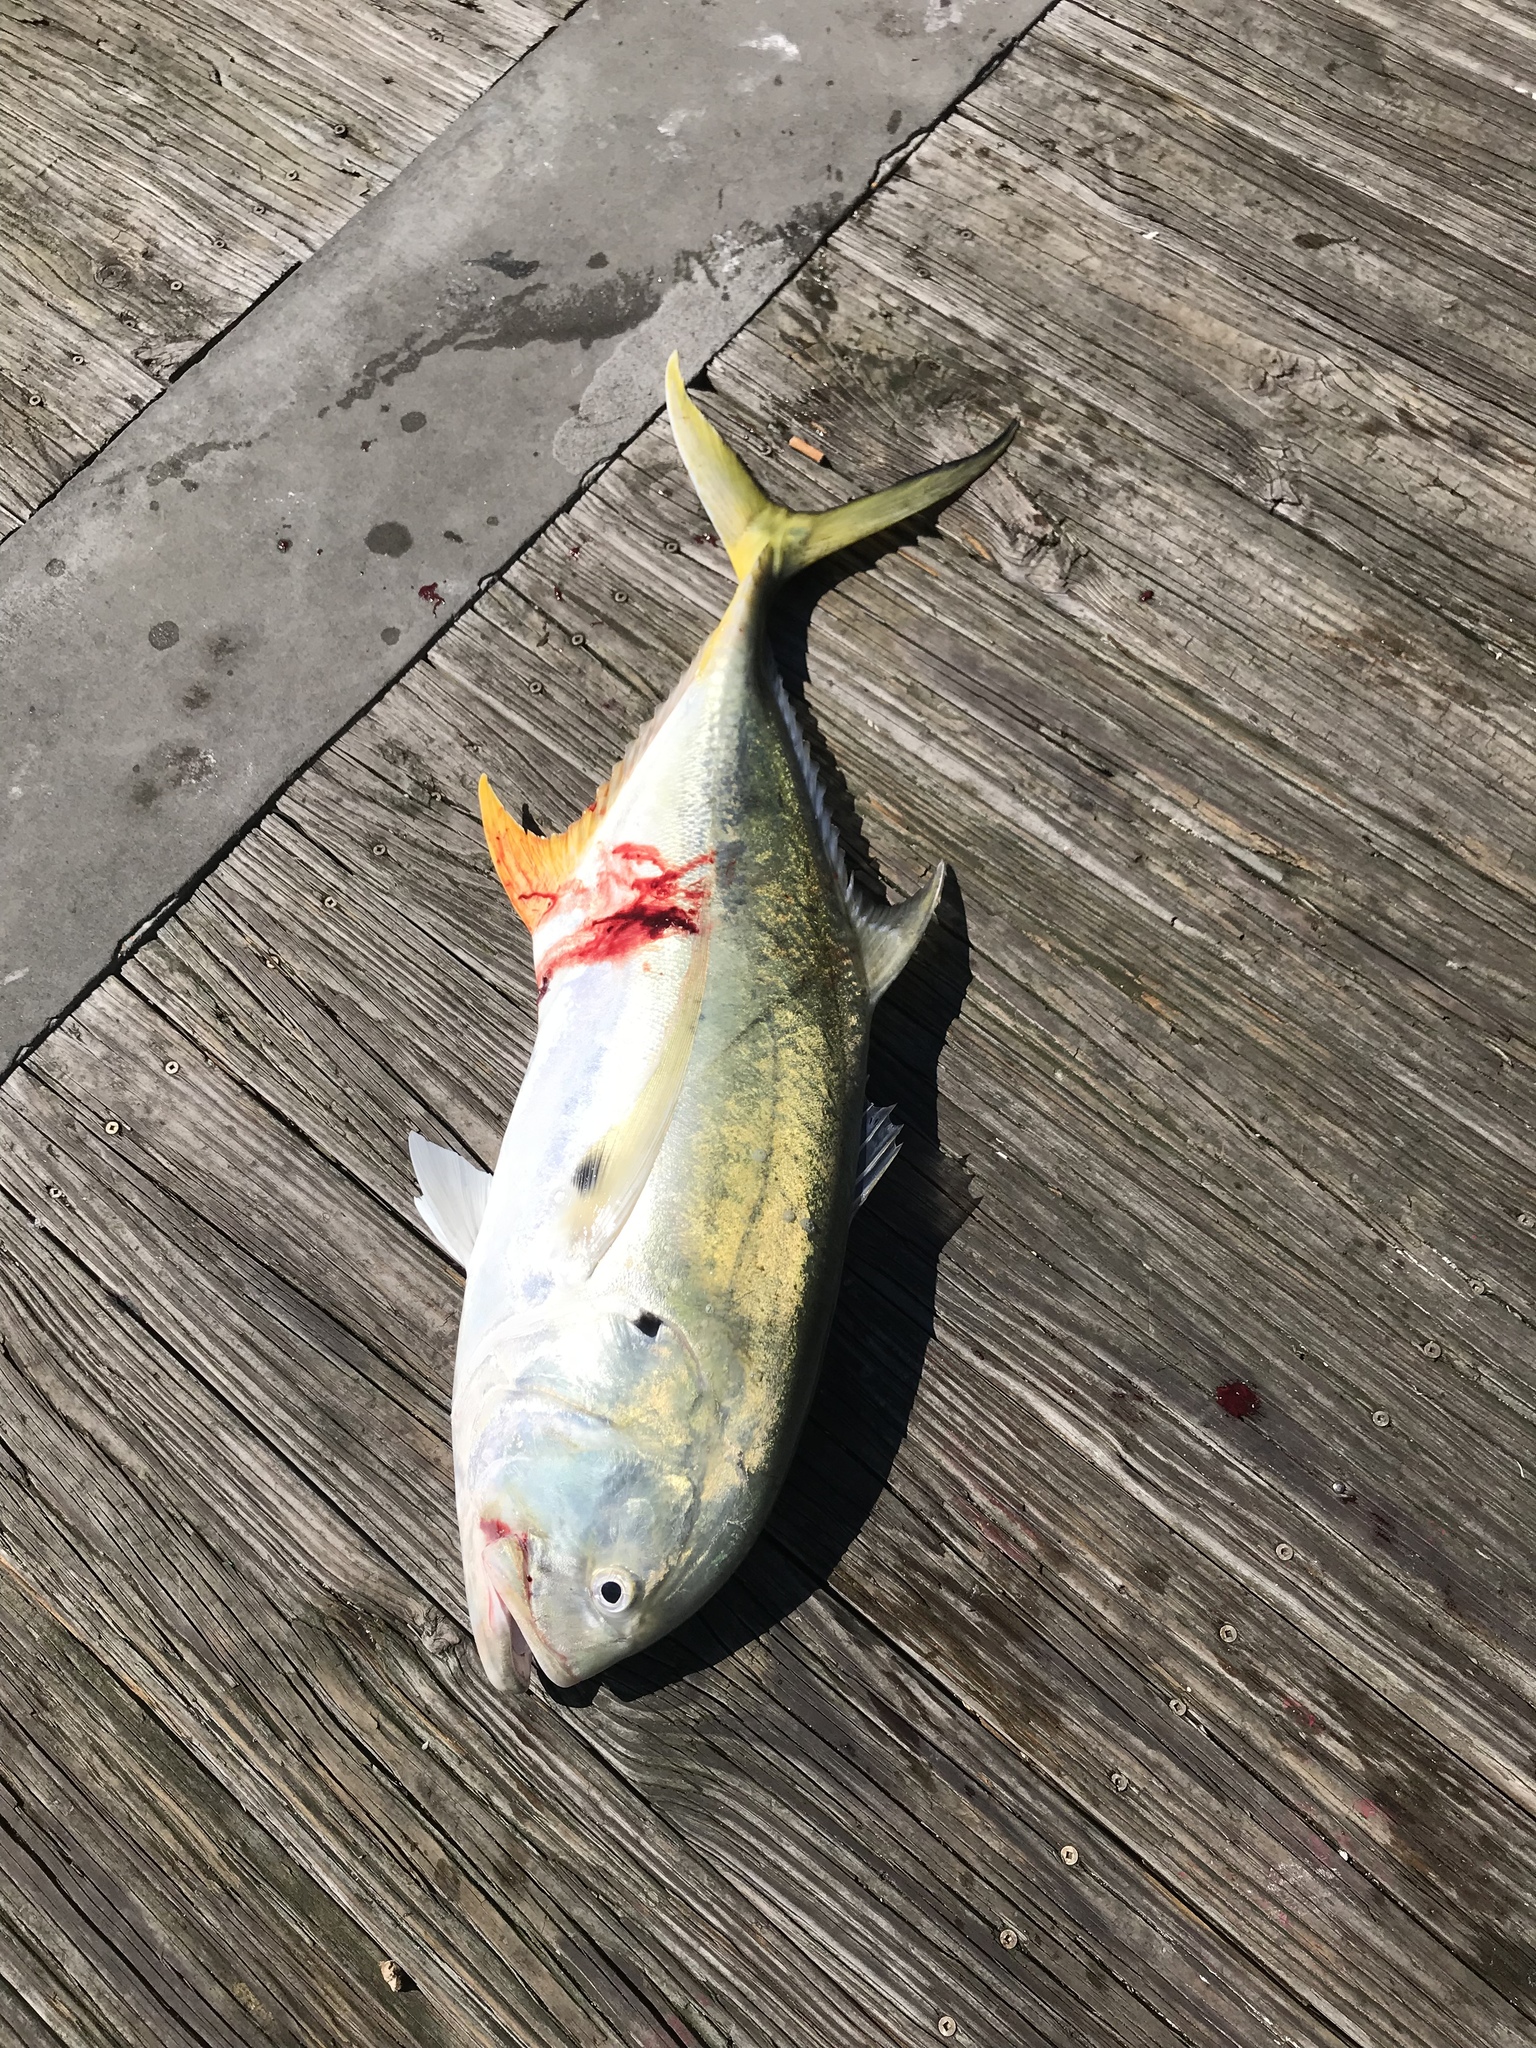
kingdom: Animalia
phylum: Chordata
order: Perciformes
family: Carangidae
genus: Caranx
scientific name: Caranx hippos
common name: Common jack
